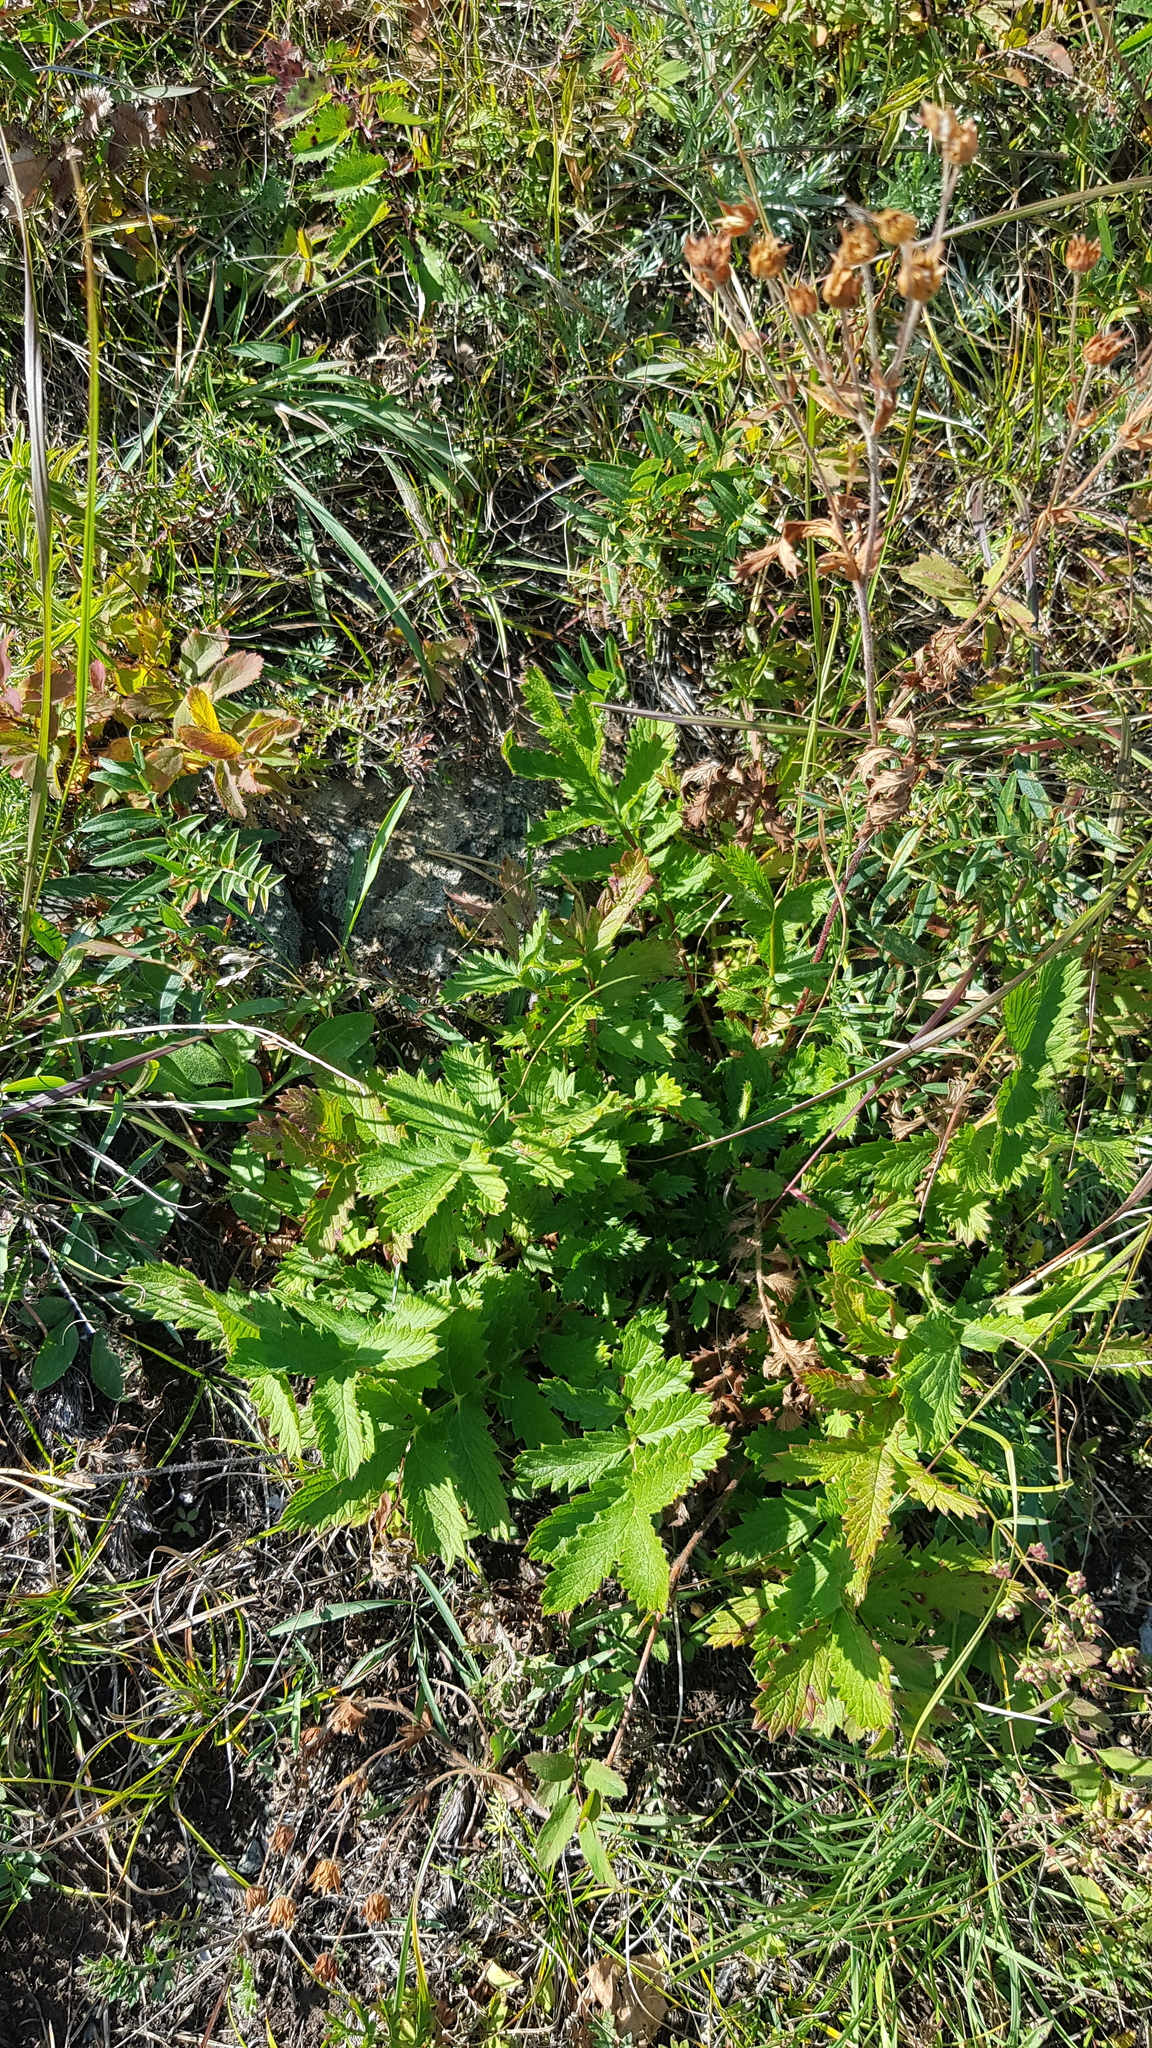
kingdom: Plantae
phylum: Tracheophyta
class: Magnoliopsida
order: Rosales
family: Rosaceae
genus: Potentilla
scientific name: Potentilla longifolia
